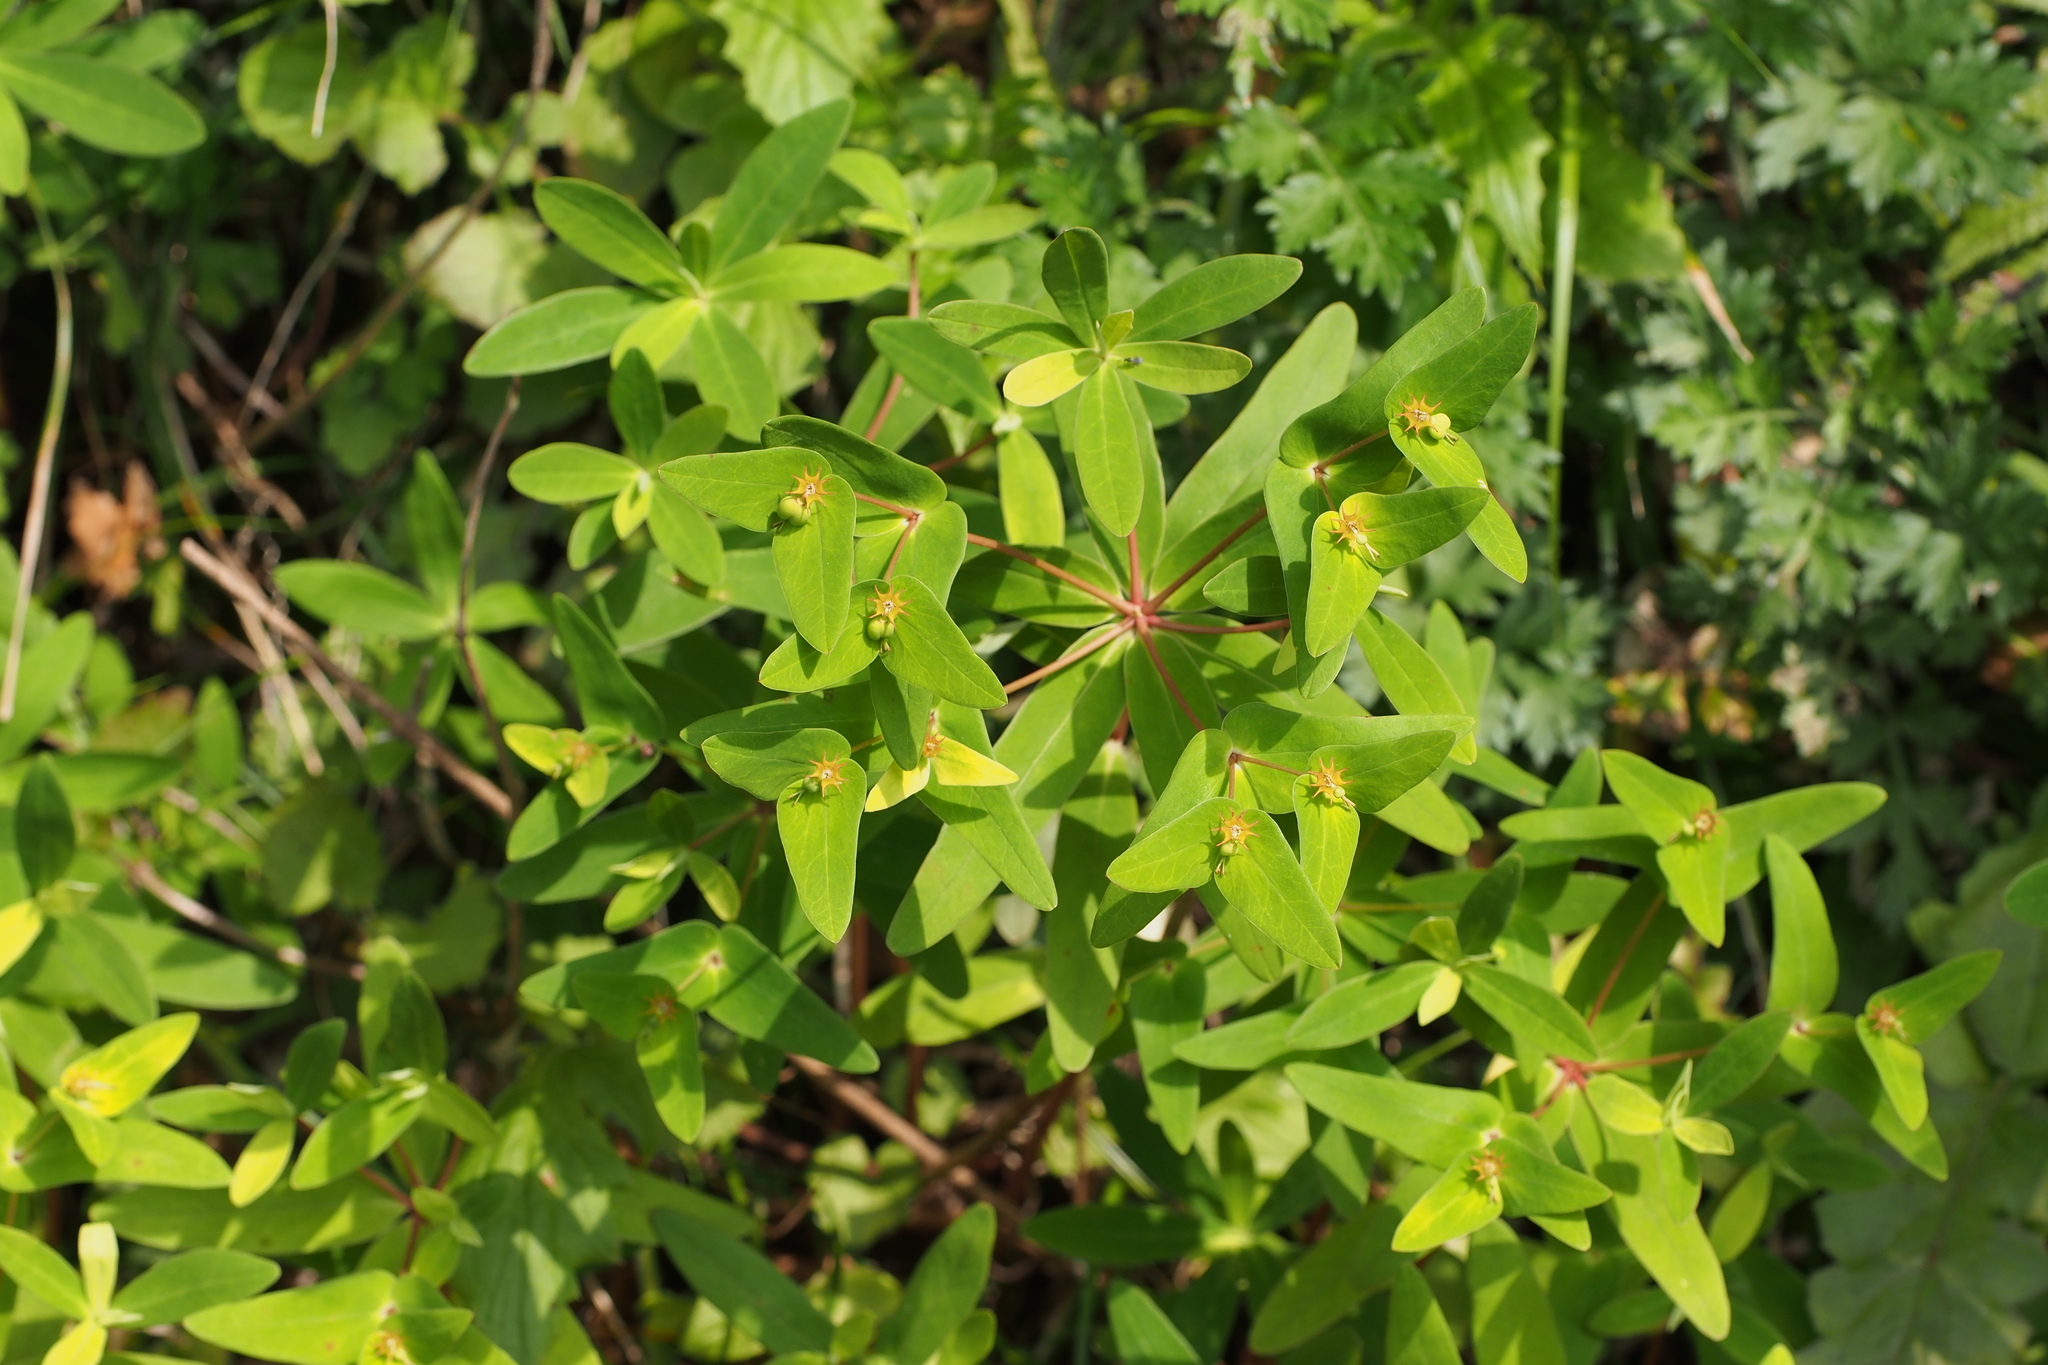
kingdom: Plantae
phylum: Tracheophyta
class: Magnoliopsida
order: Malpighiales
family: Euphorbiaceae
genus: Euphorbia
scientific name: Euphorbia sieboldiana
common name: Siebold's spurge
